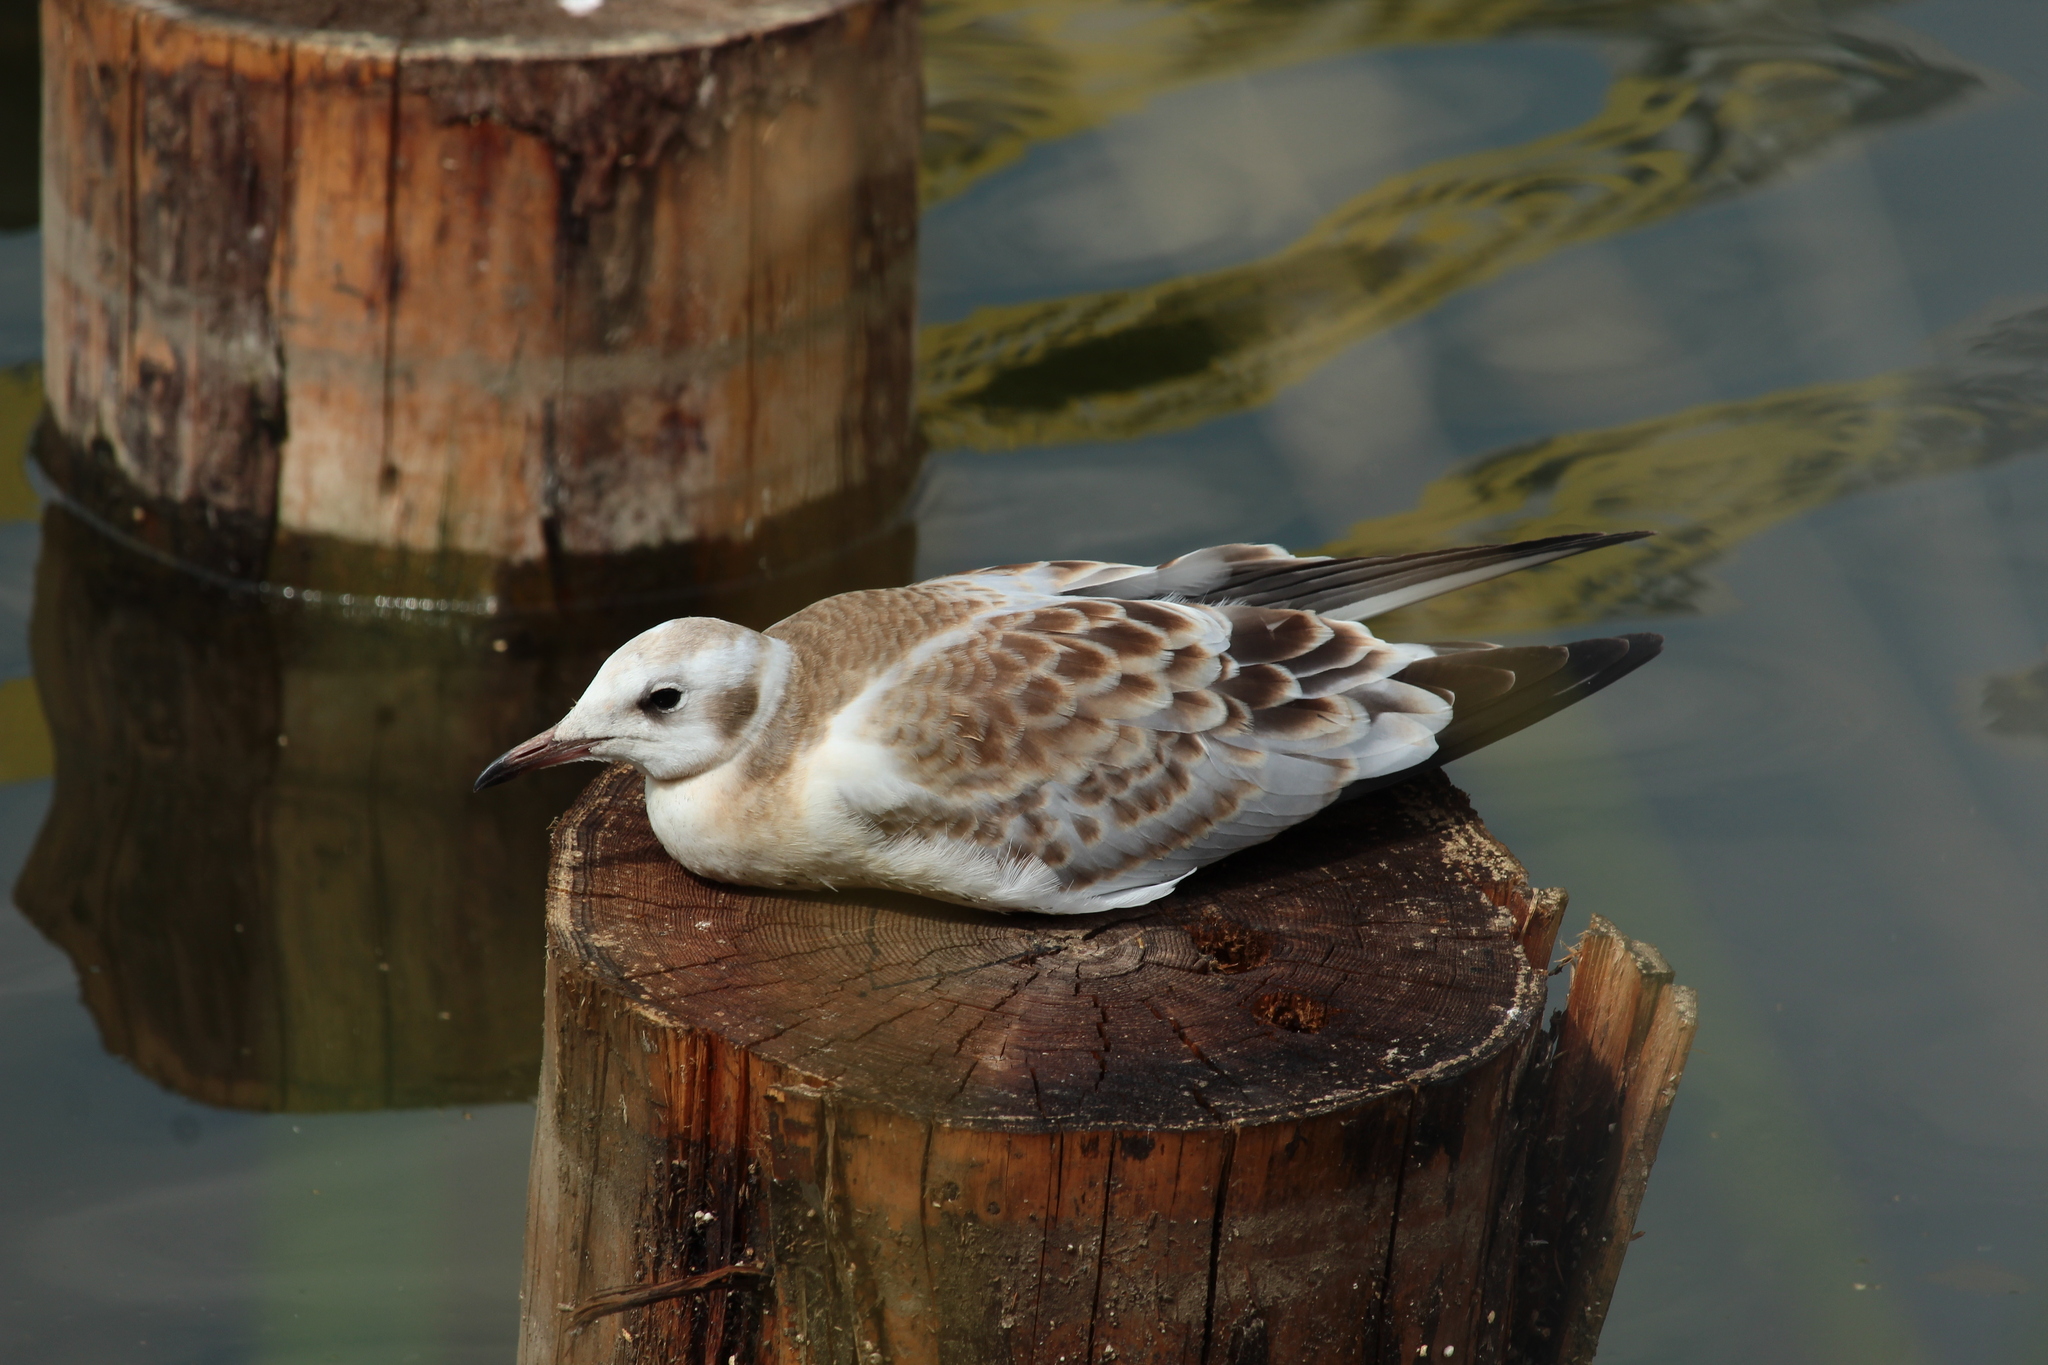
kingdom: Animalia
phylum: Chordata
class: Aves
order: Charadriiformes
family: Laridae
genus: Chroicocephalus
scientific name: Chroicocephalus ridibundus
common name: Black-headed gull
